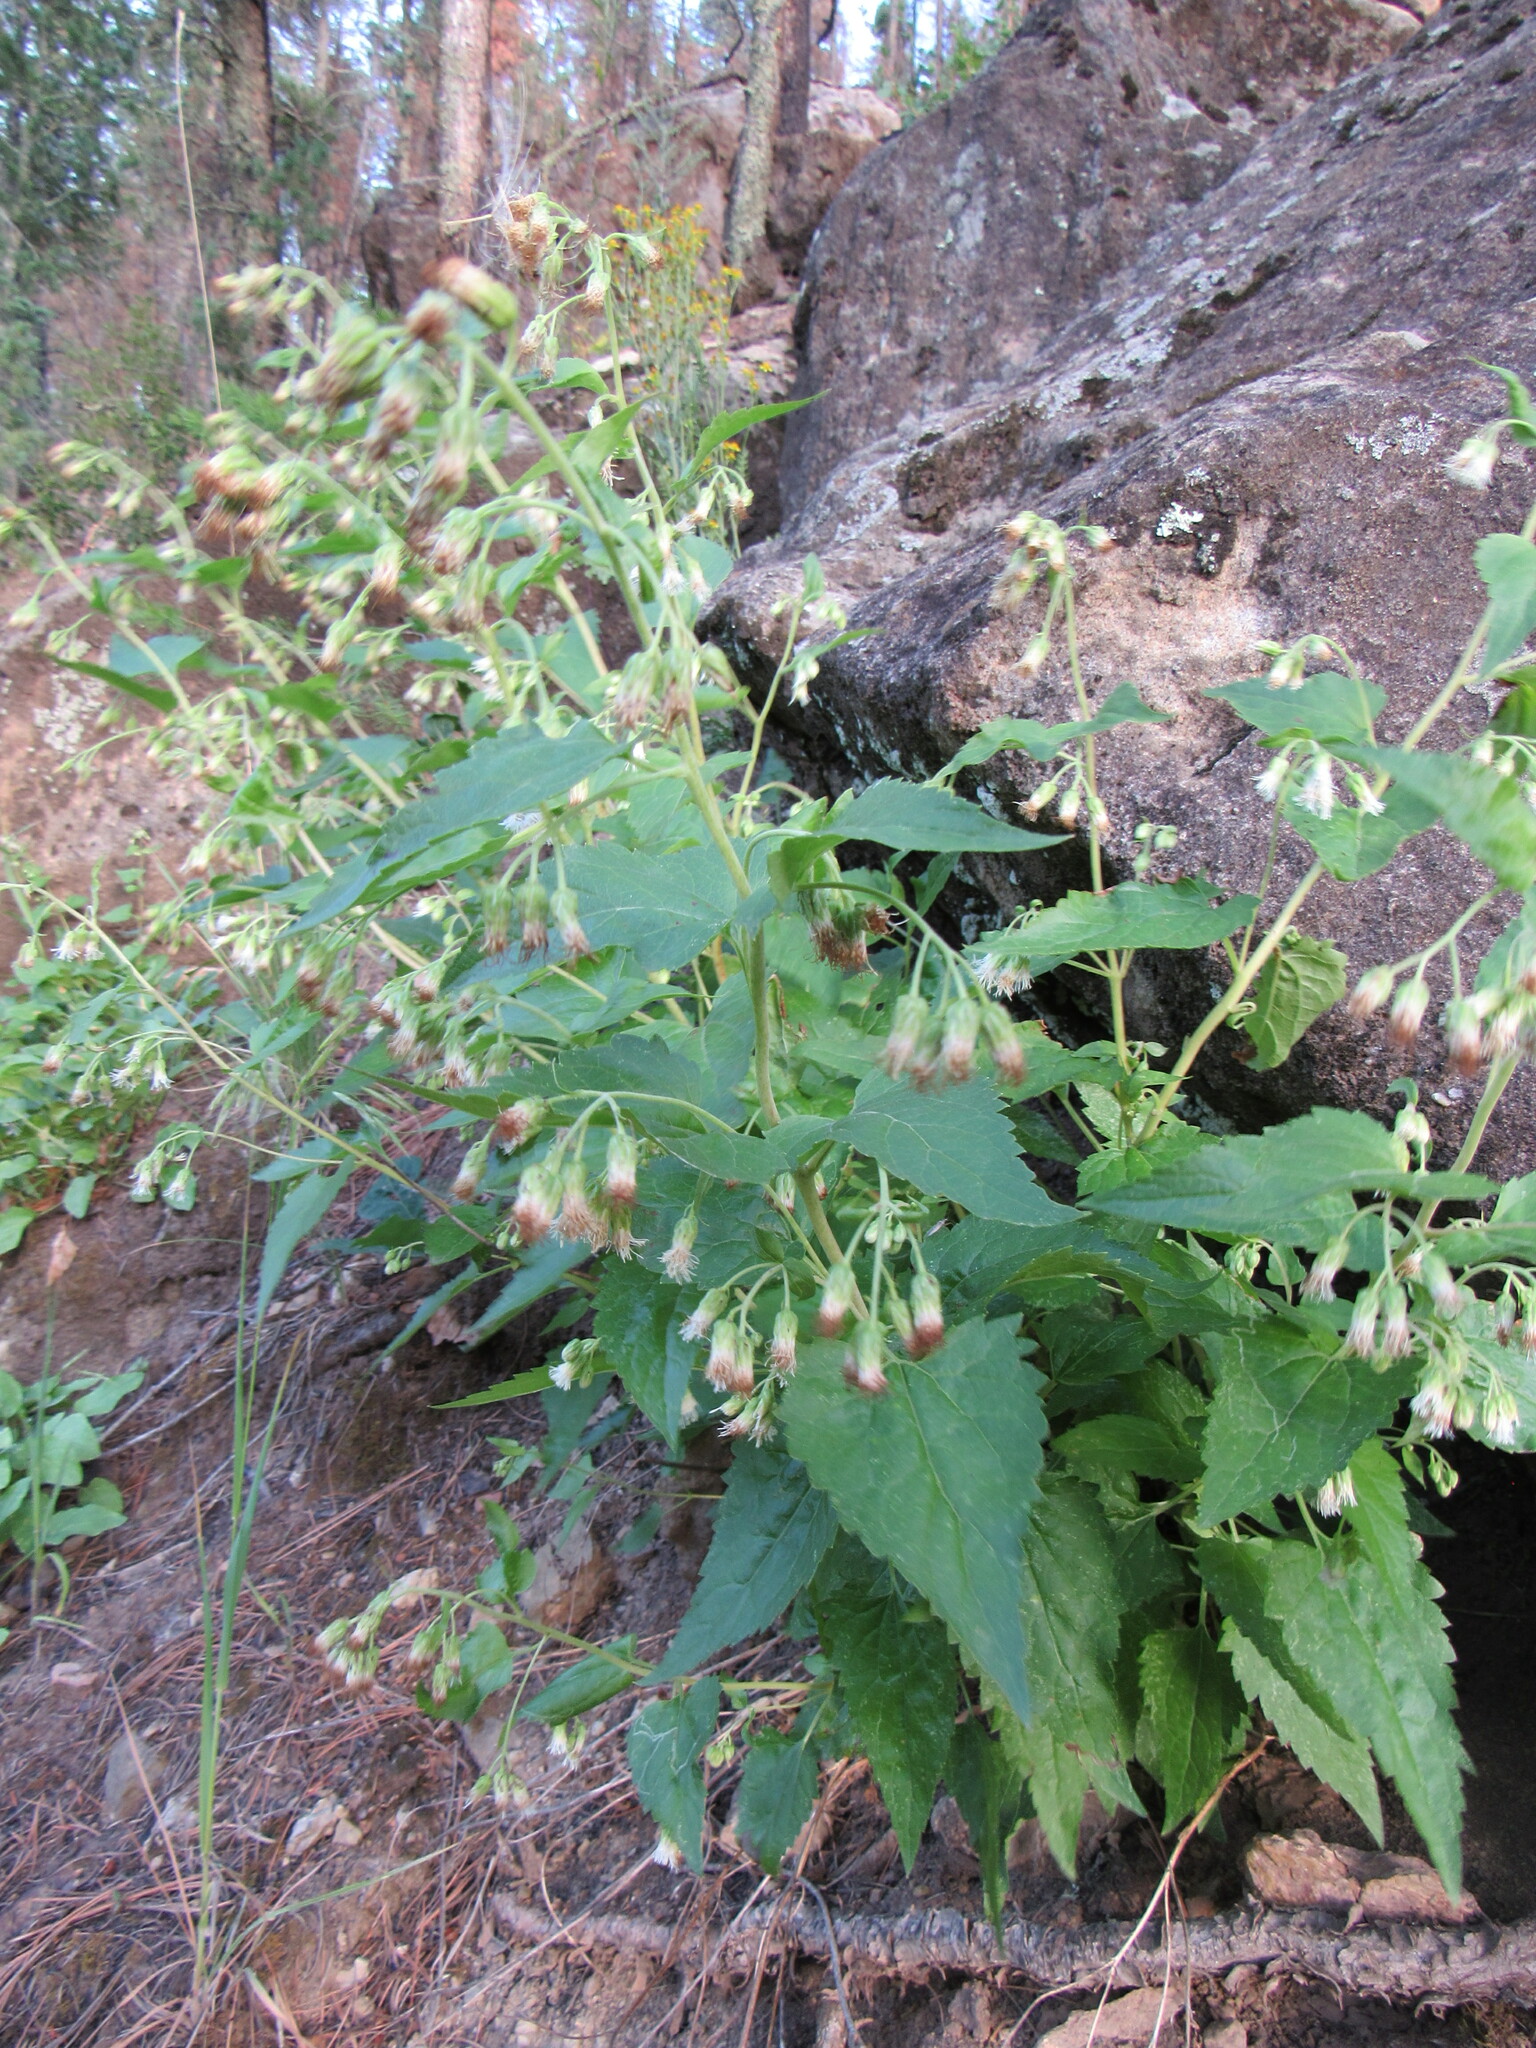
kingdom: Plantae
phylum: Tracheophyta
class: Magnoliopsida
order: Asterales
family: Asteraceae
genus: Brickelliastrum
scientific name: Brickelliastrum fendleri
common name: Fendler's-brickellbush
